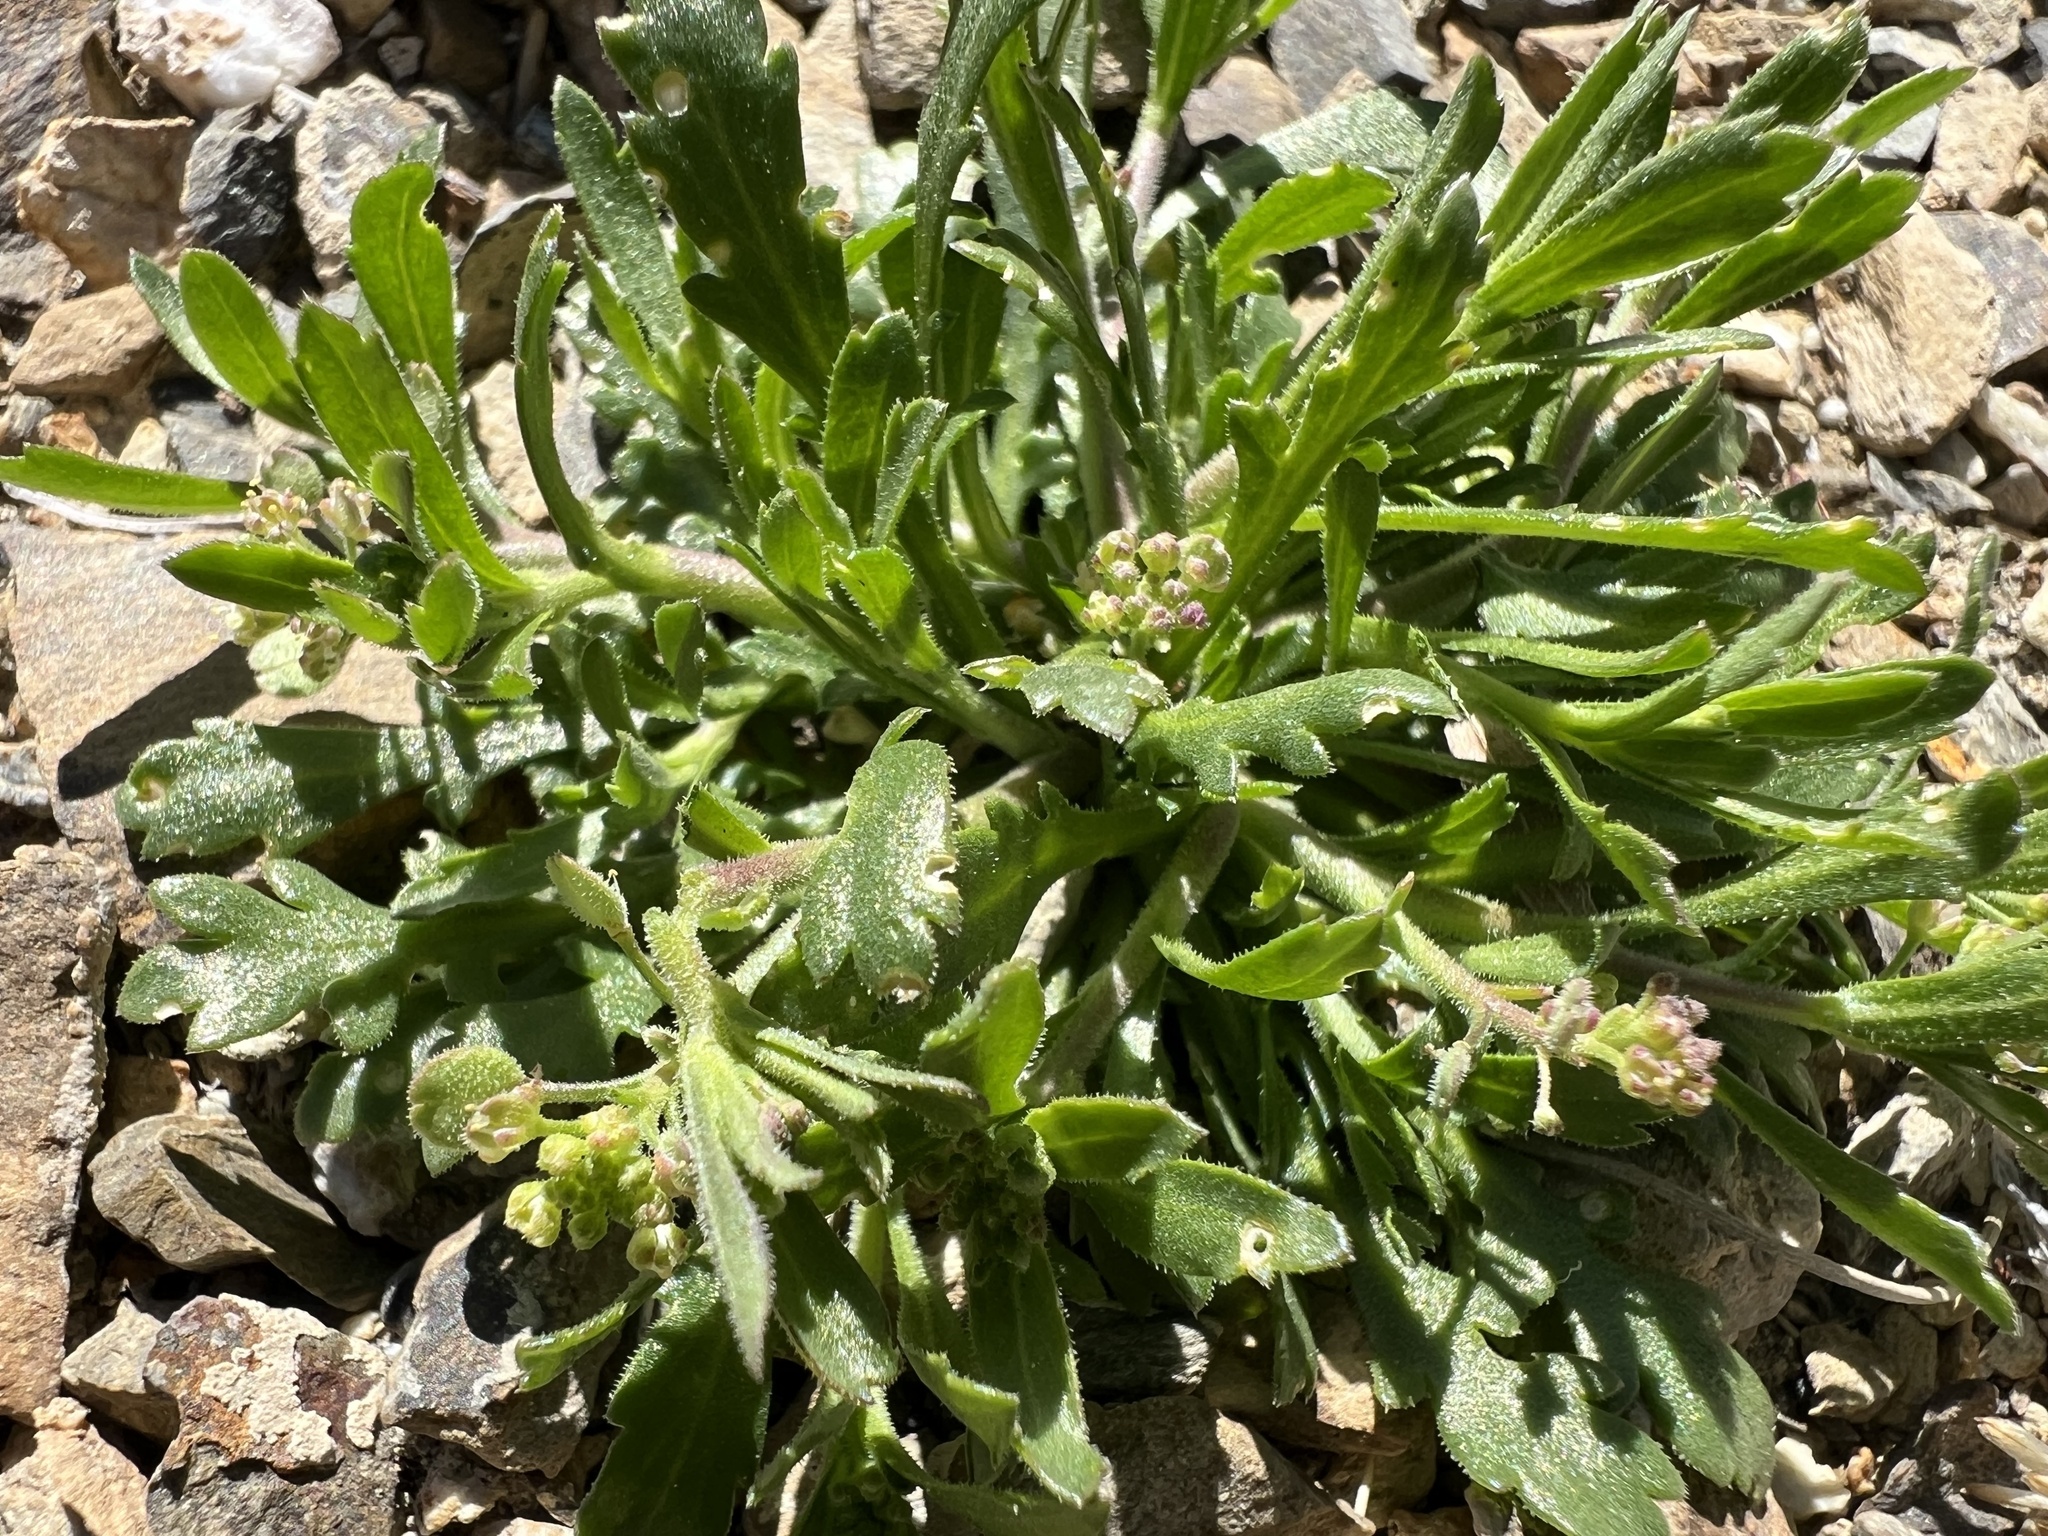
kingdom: Plantae
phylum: Tracheophyta
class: Magnoliopsida
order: Brassicales
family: Brassicaceae
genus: Lepidium
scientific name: Lepidium lasiocarpum
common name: Hairy-pod pepperwort
